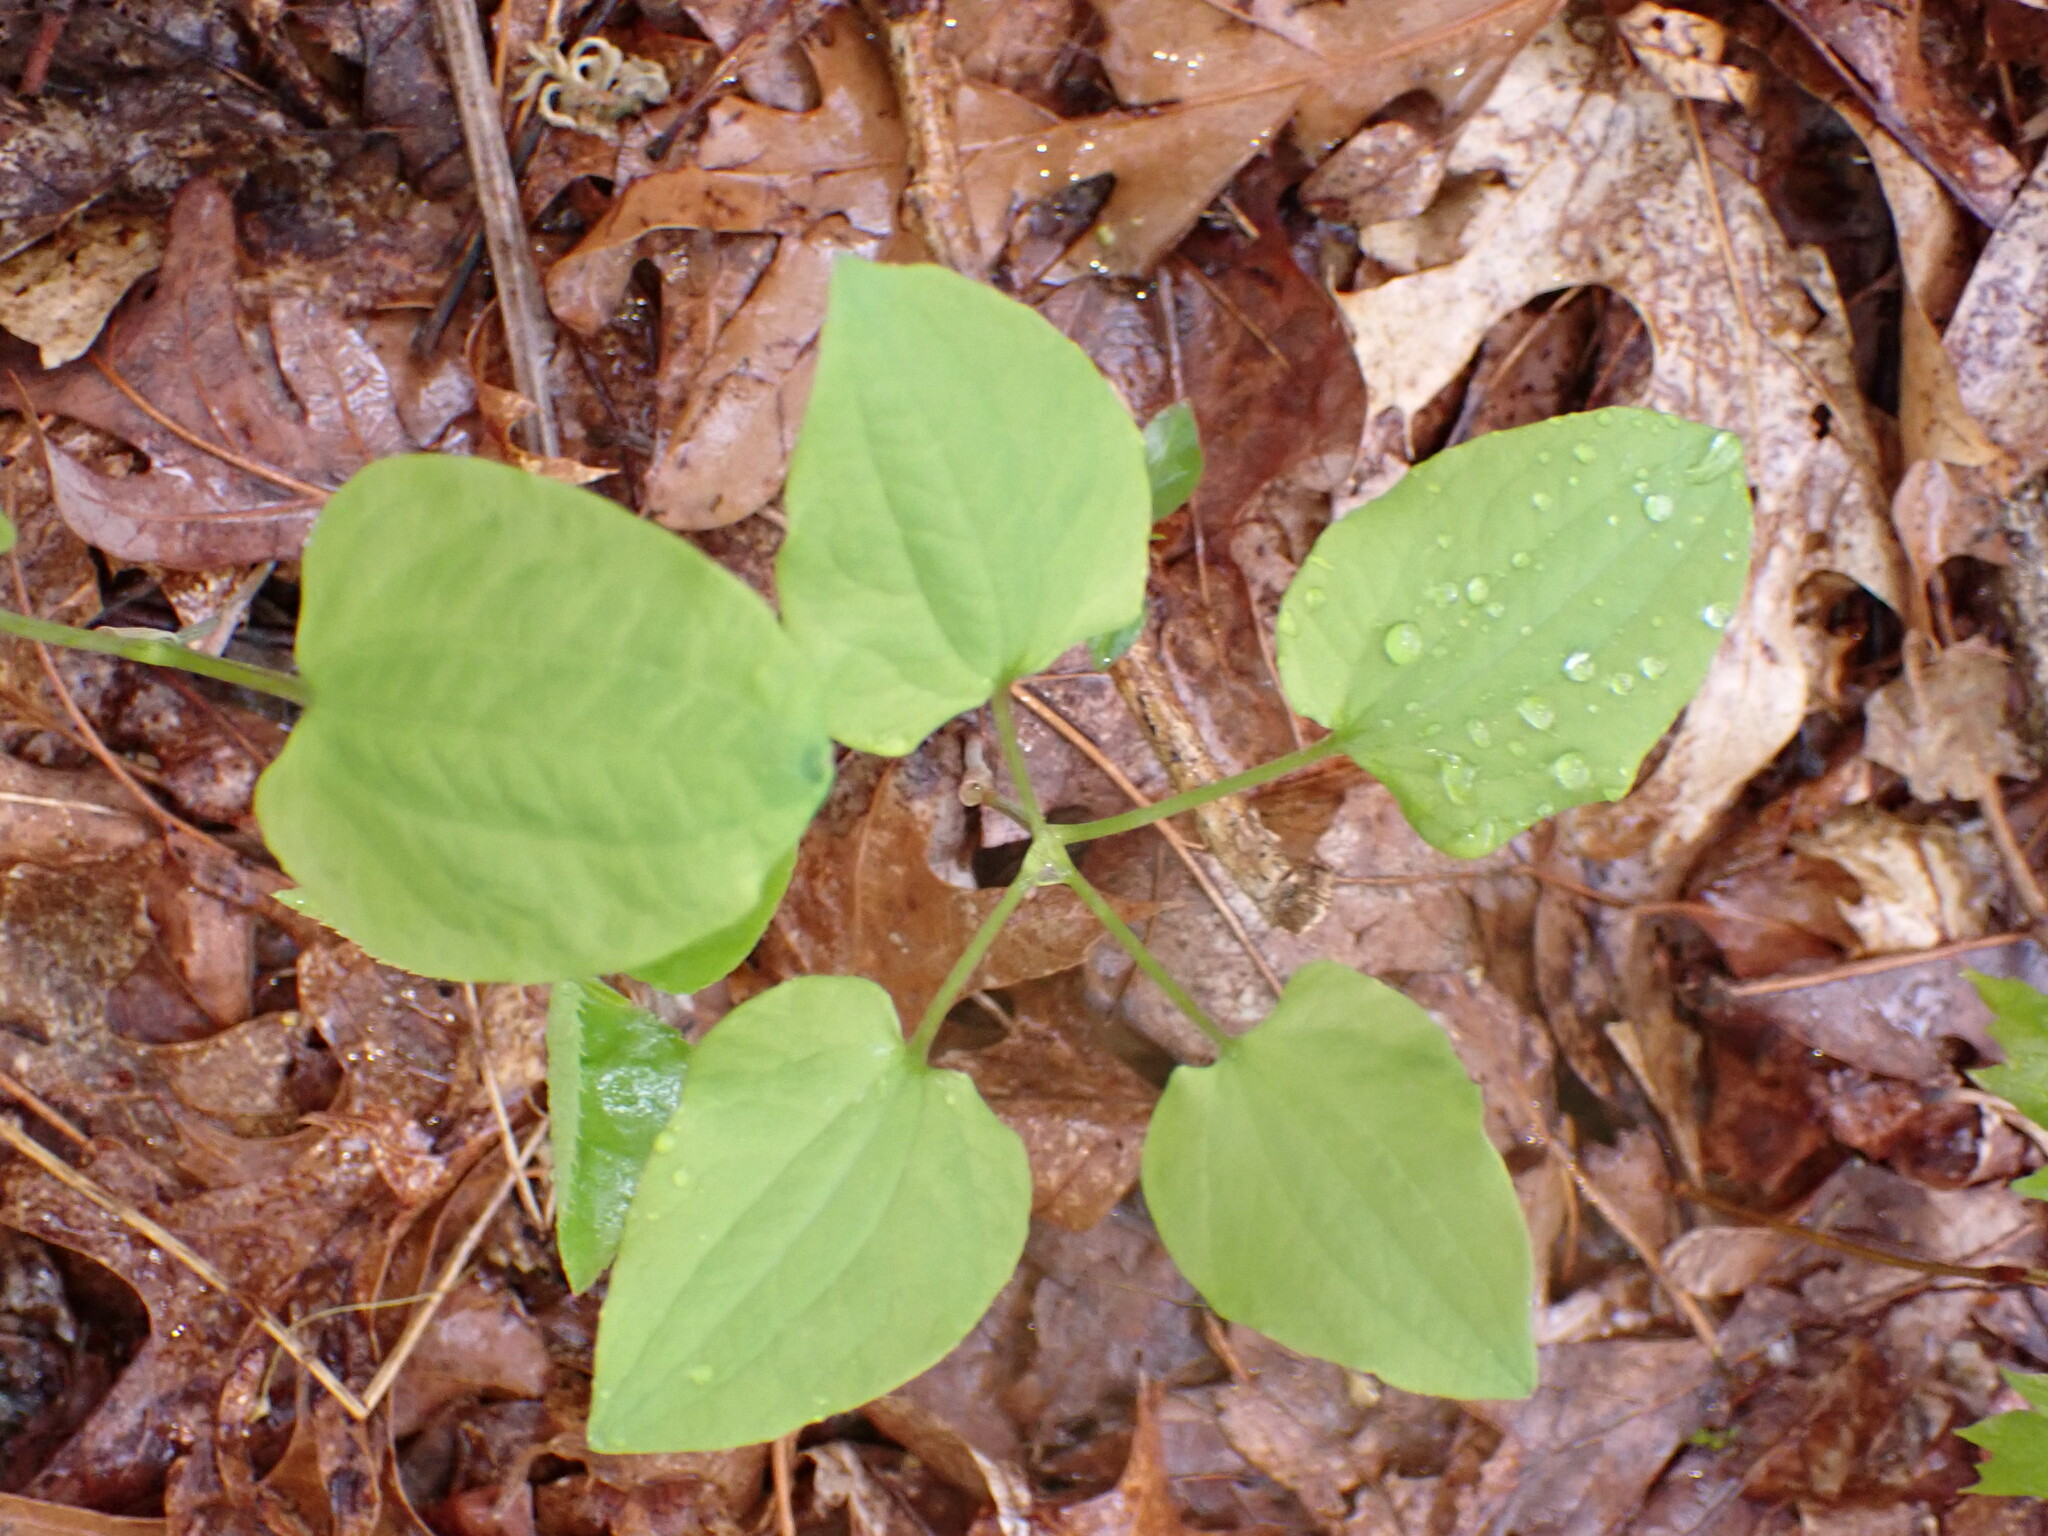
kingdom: Plantae
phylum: Tracheophyta
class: Liliopsida
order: Liliales
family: Smilacaceae
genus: Smilax
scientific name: Smilax herbacea
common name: Jacob's-ladder
